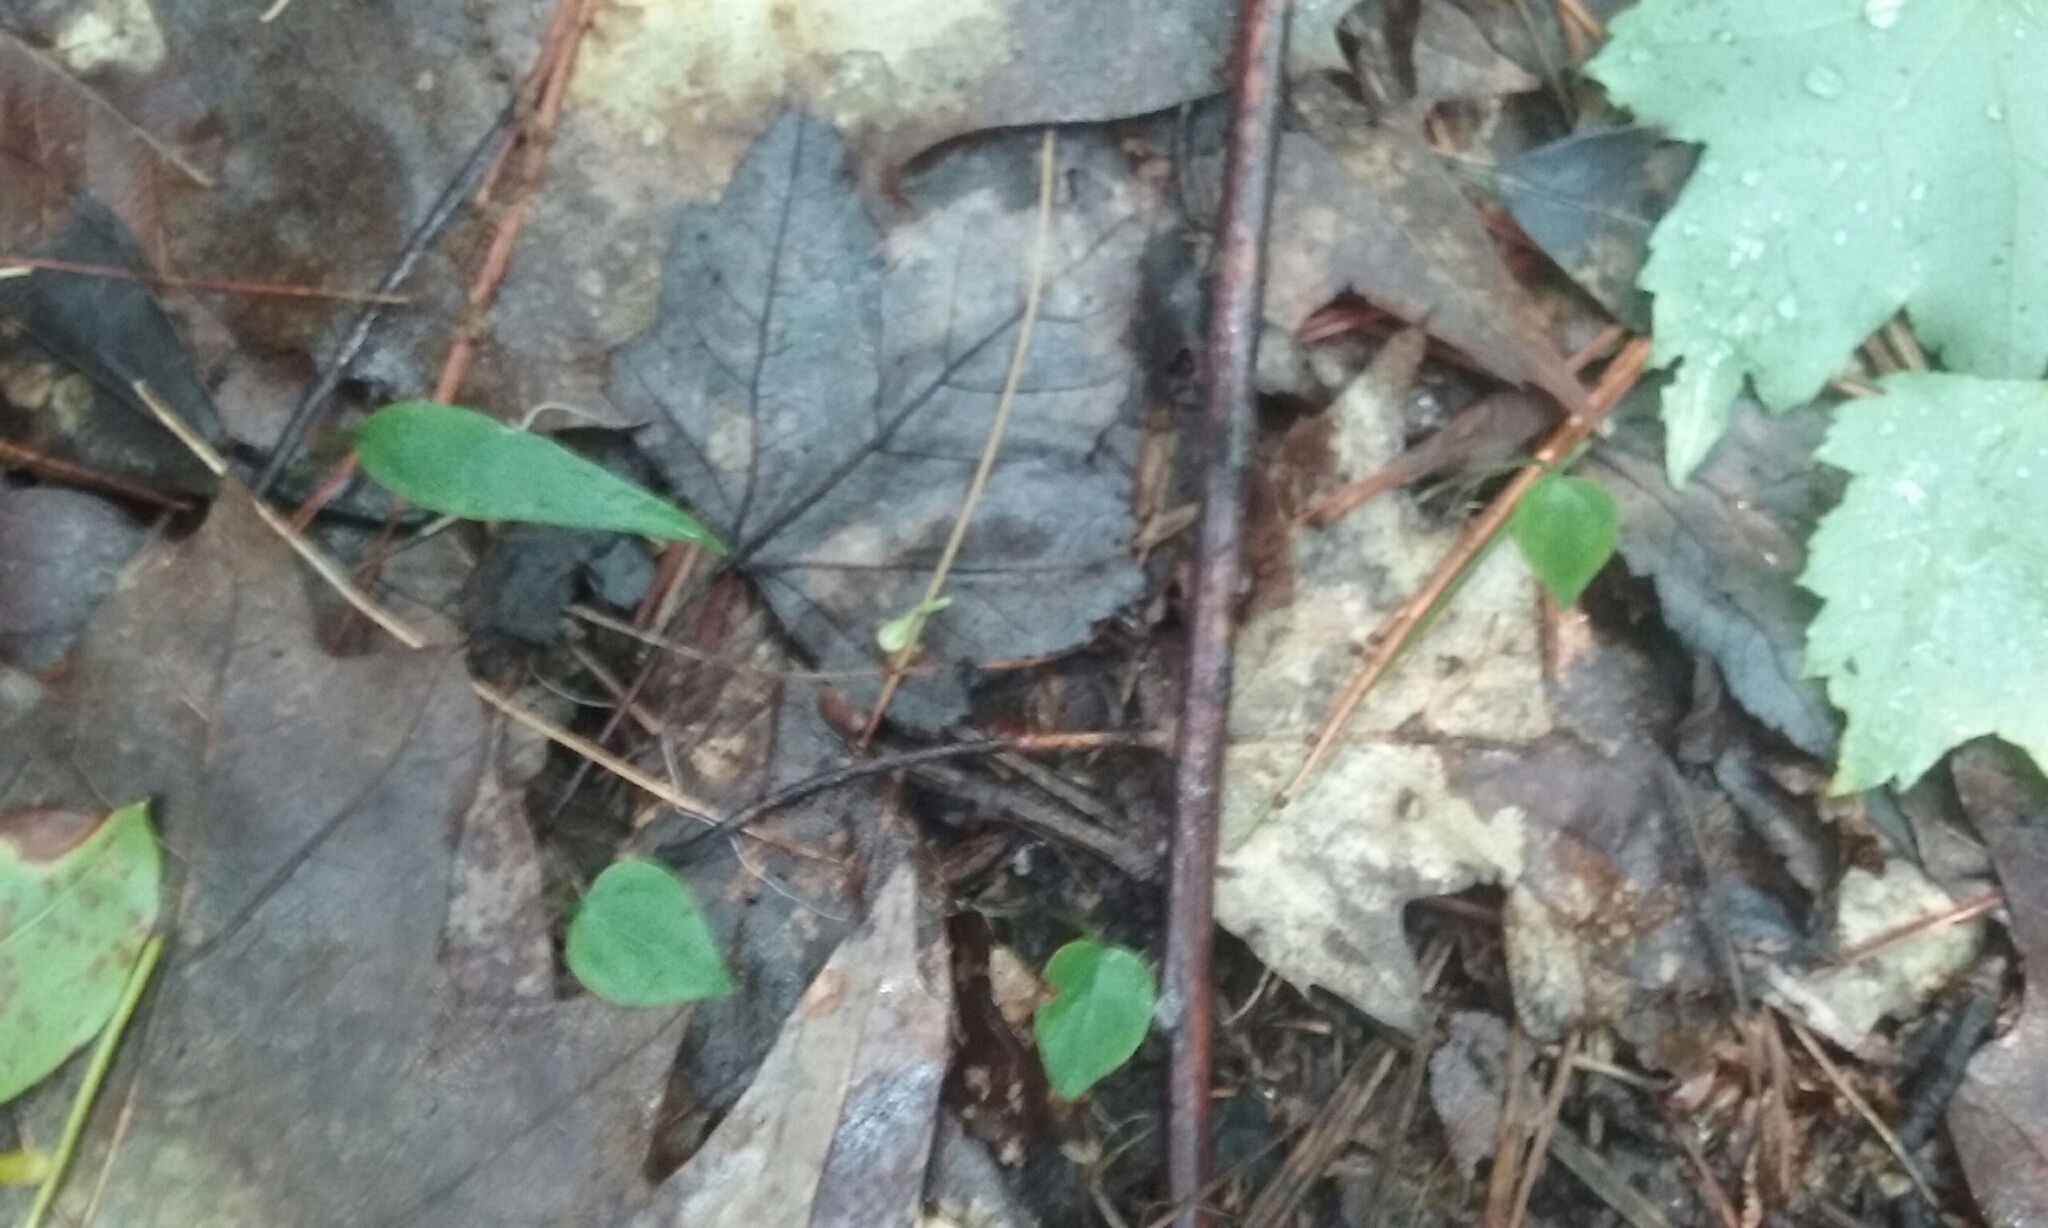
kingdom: Plantae
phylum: Tracheophyta
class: Liliopsida
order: Asparagales
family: Asparagaceae
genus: Maianthemum
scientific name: Maianthemum canadense
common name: False lily-of-the-valley
